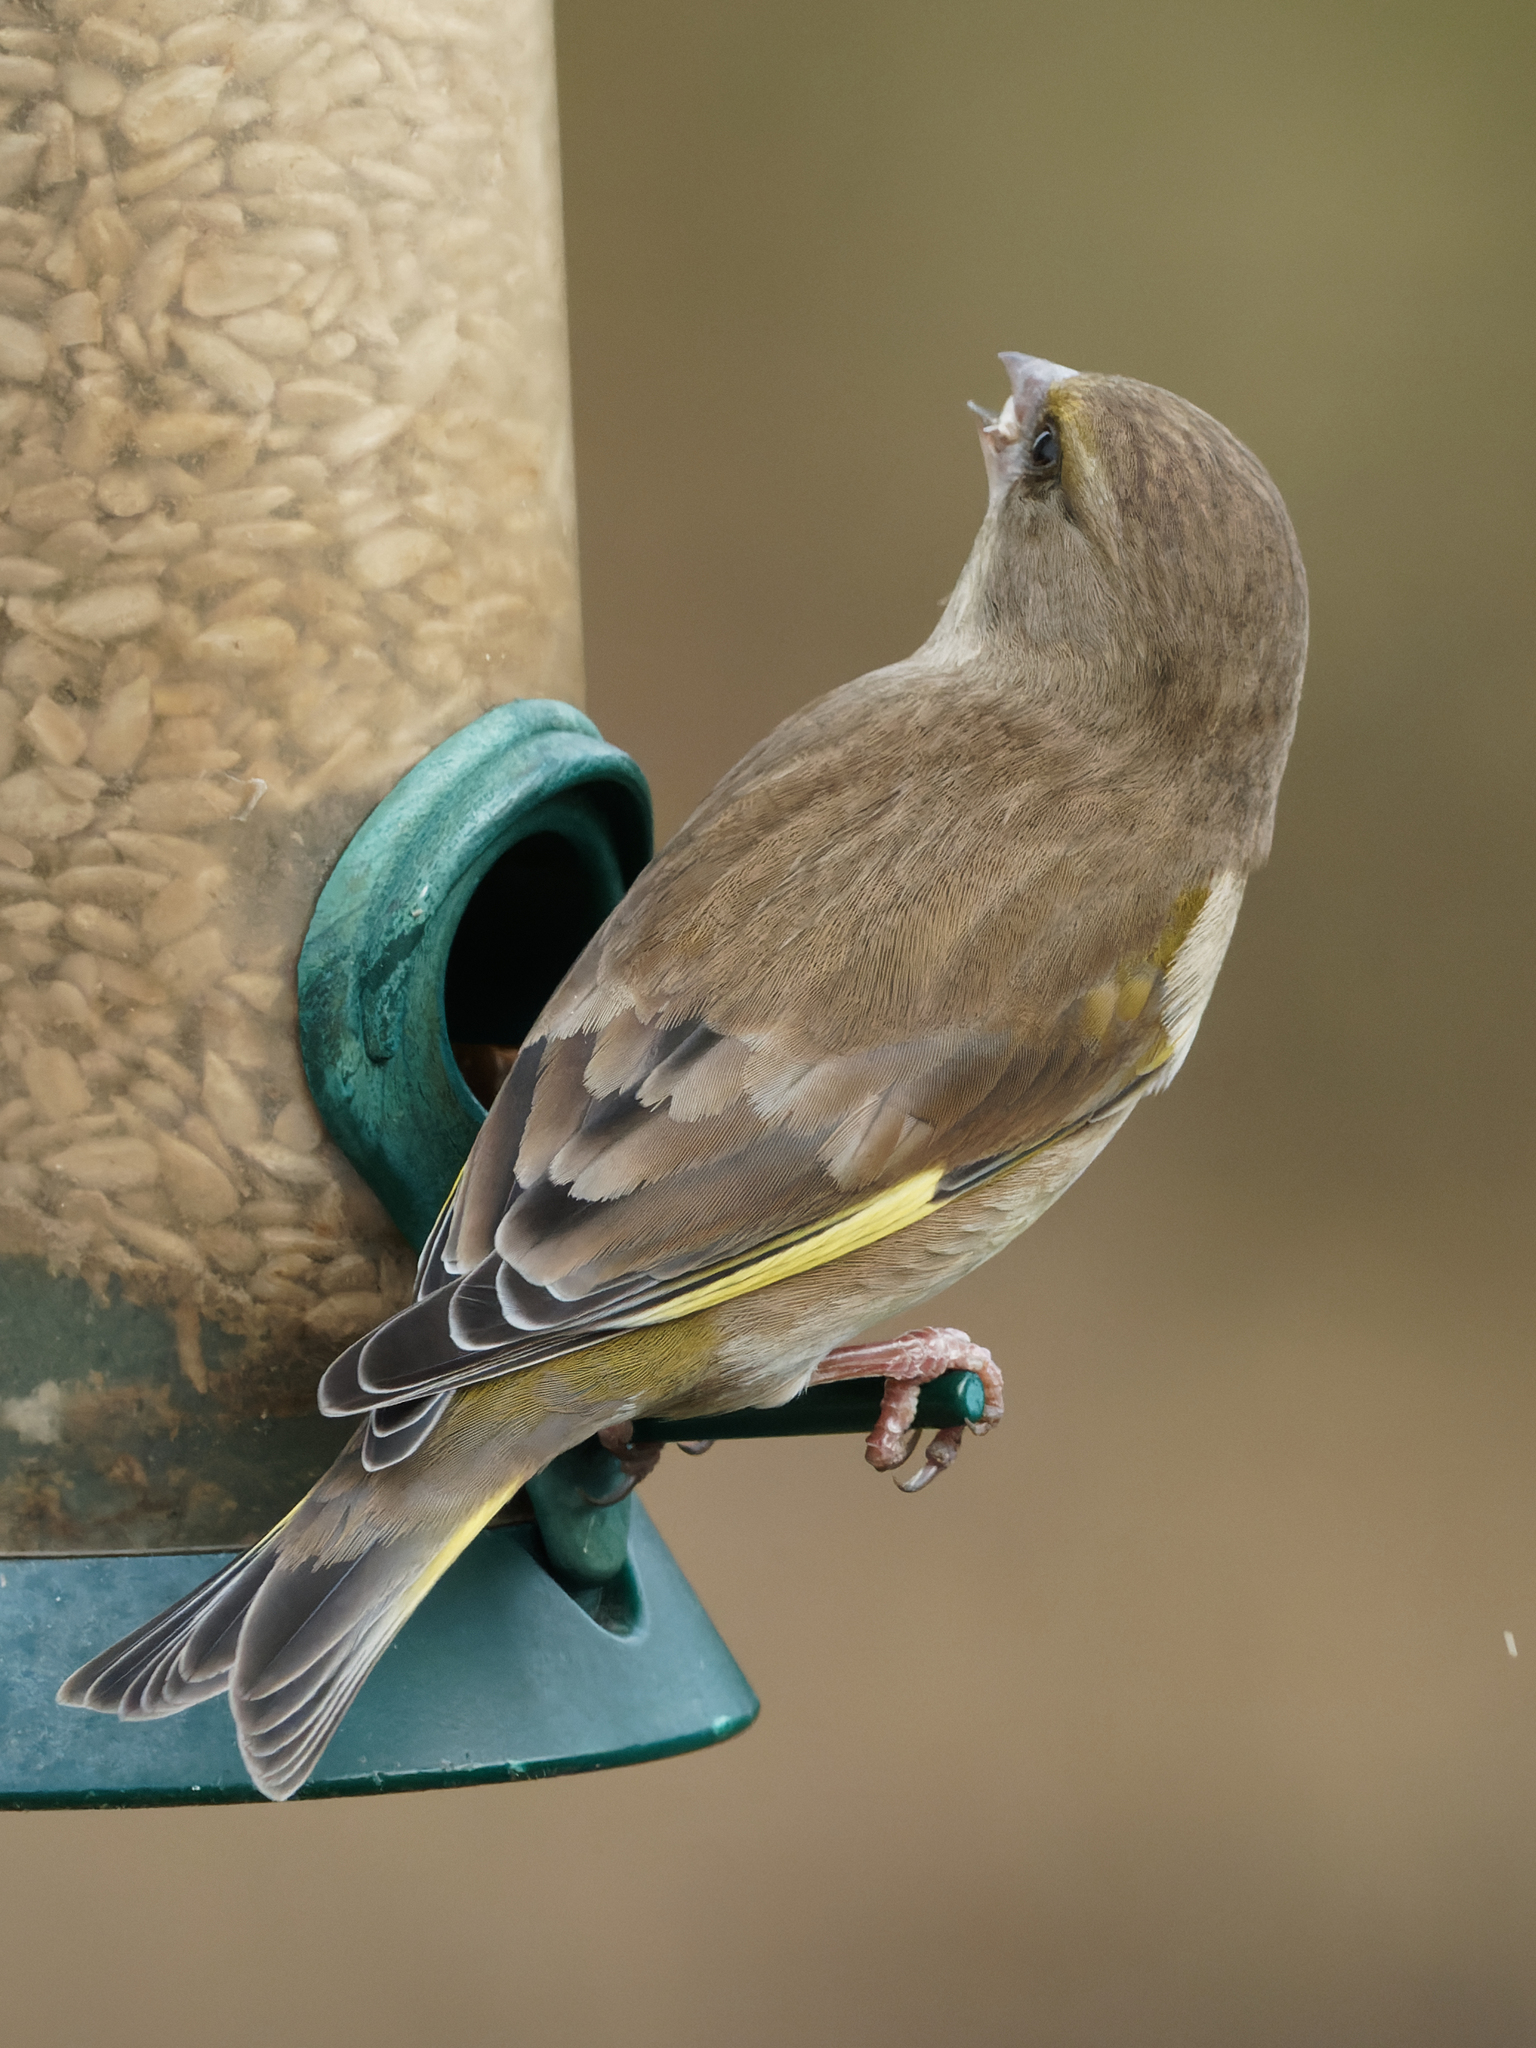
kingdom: Plantae
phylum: Tracheophyta
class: Liliopsida
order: Poales
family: Poaceae
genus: Chloris
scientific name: Chloris chloris
